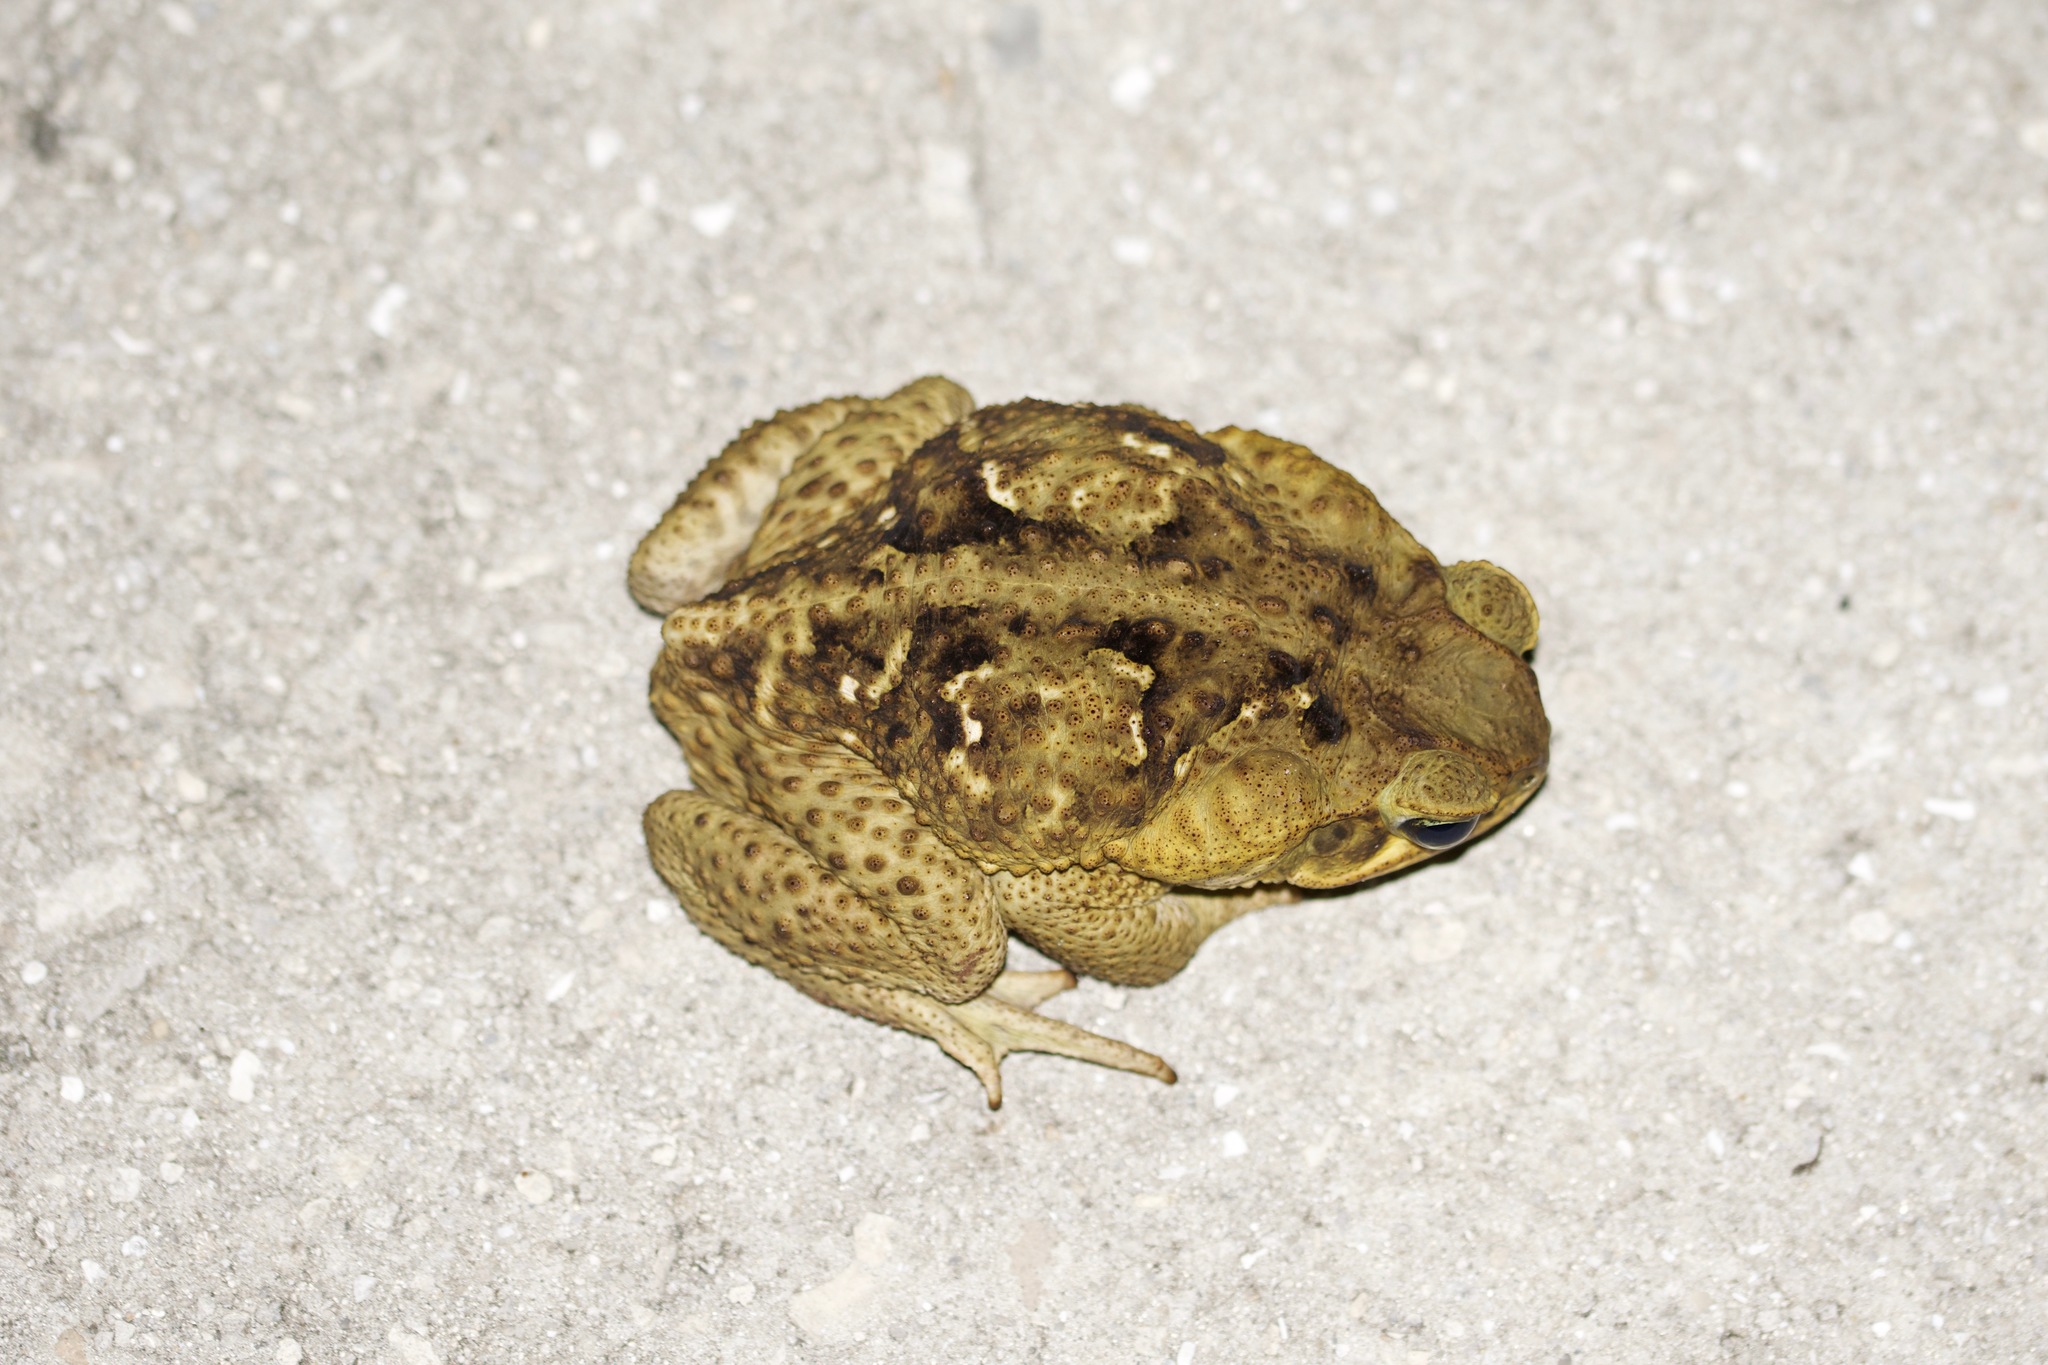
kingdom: Animalia
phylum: Chordata
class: Amphibia
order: Anura
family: Bufonidae
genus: Rhinella
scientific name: Rhinella marina
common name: Cane toad
